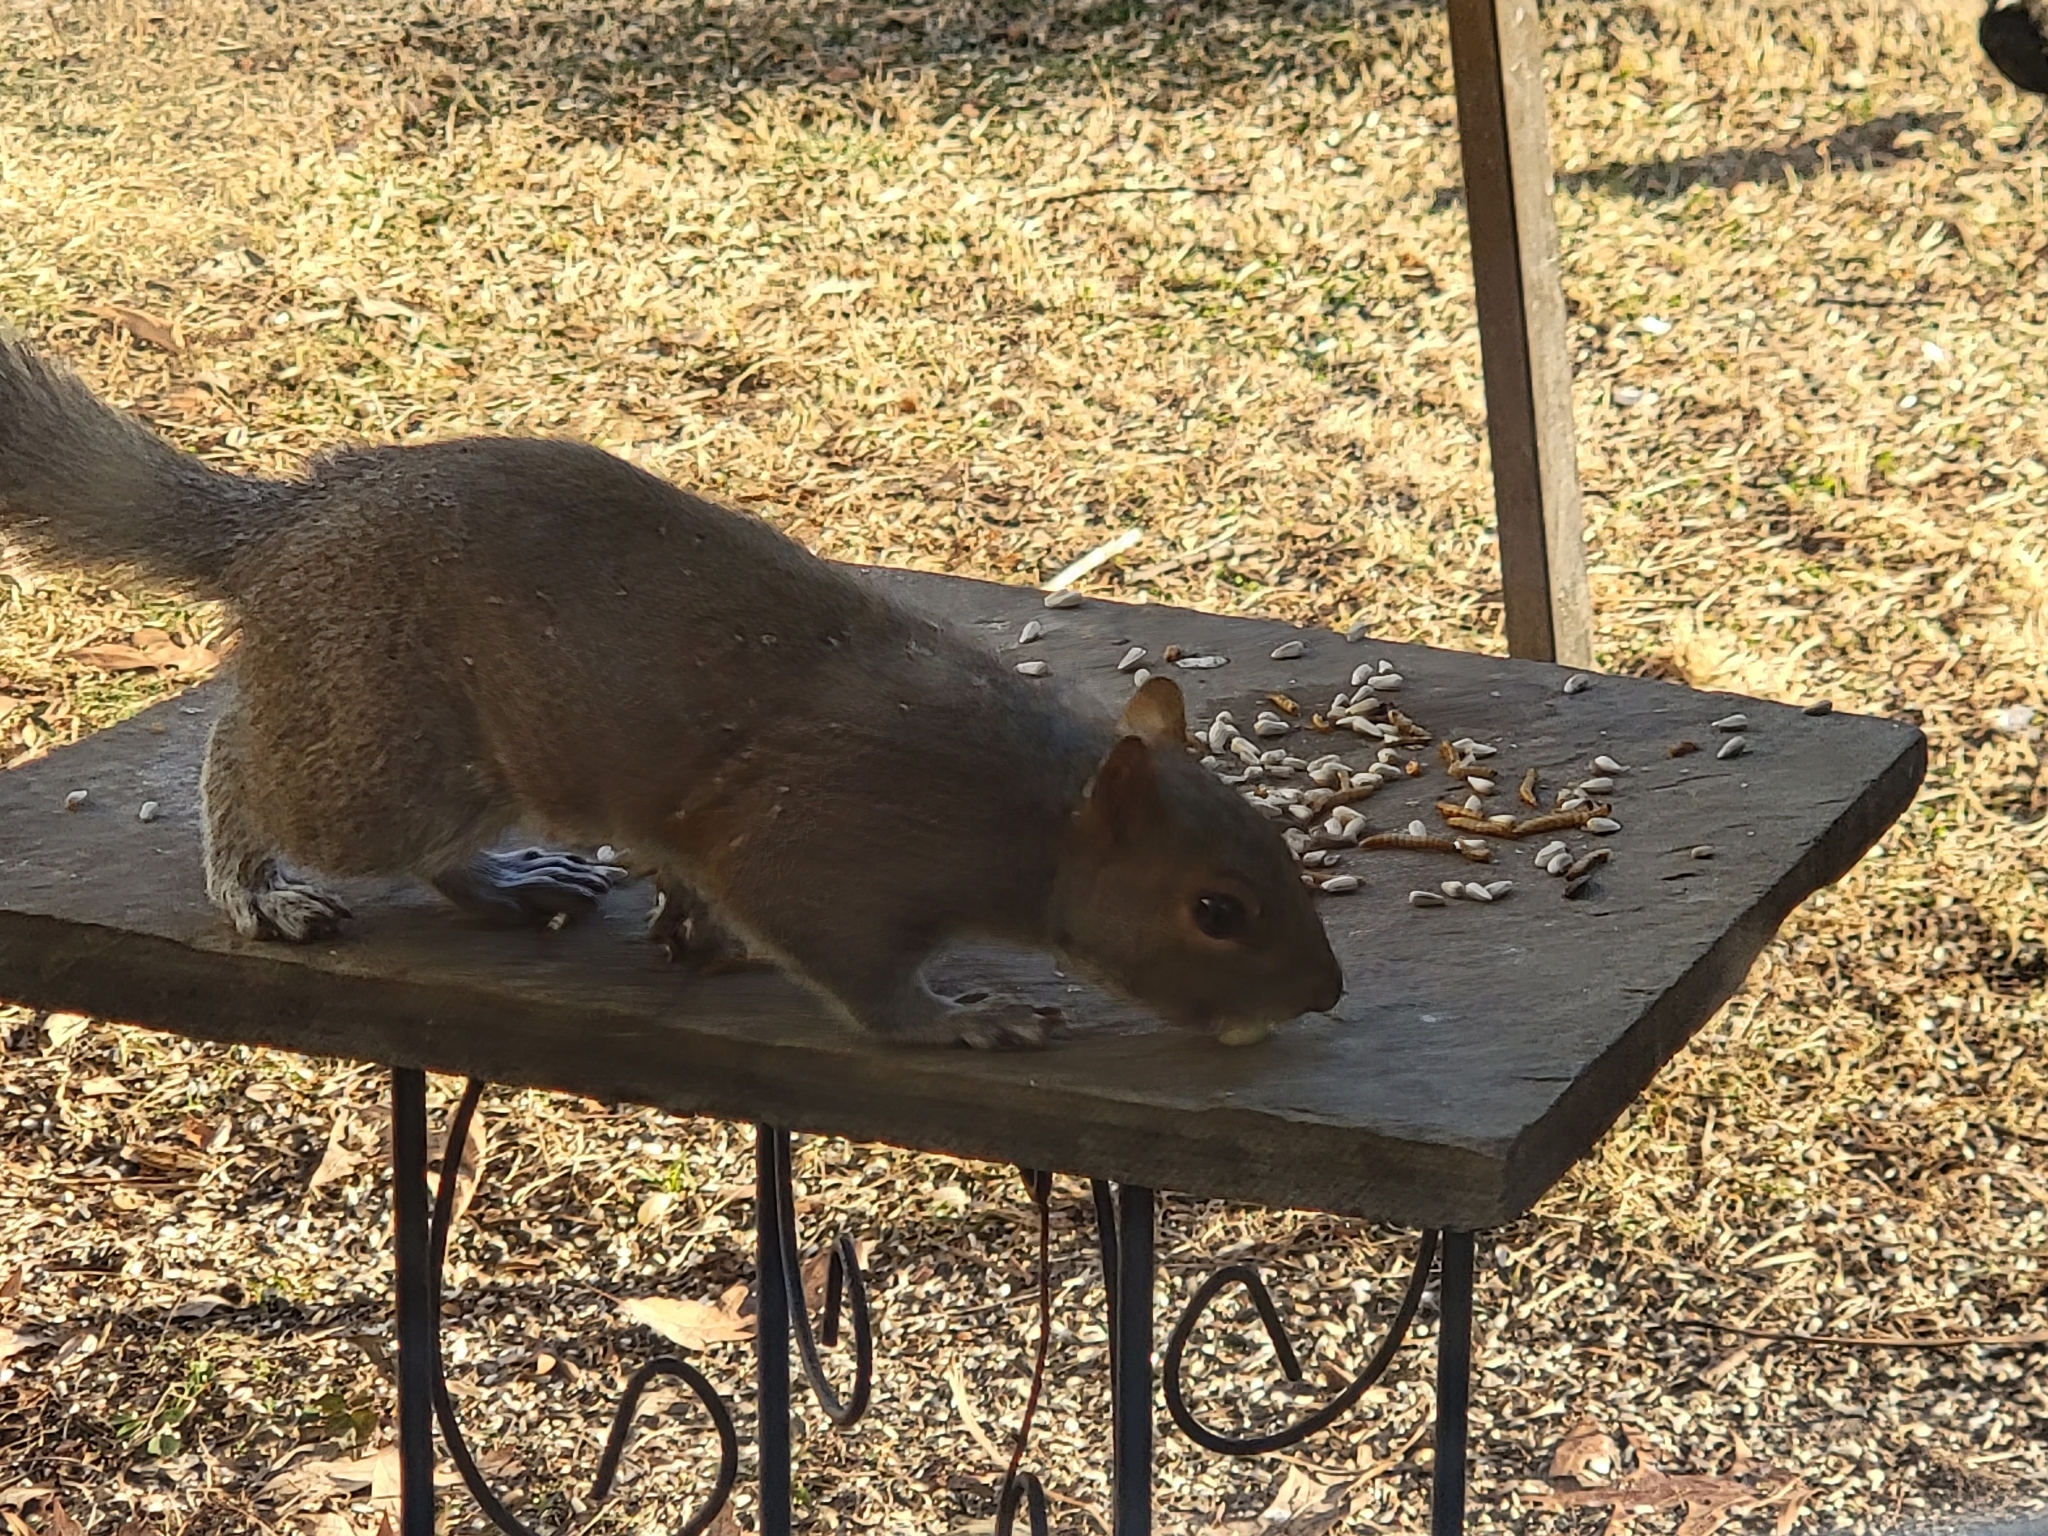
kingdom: Animalia
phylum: Chordata
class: Mammalia
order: Rodentia
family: Sciuridae
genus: Sciurus
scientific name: Sciurus carolinensis
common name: Eastern gray squirrel
